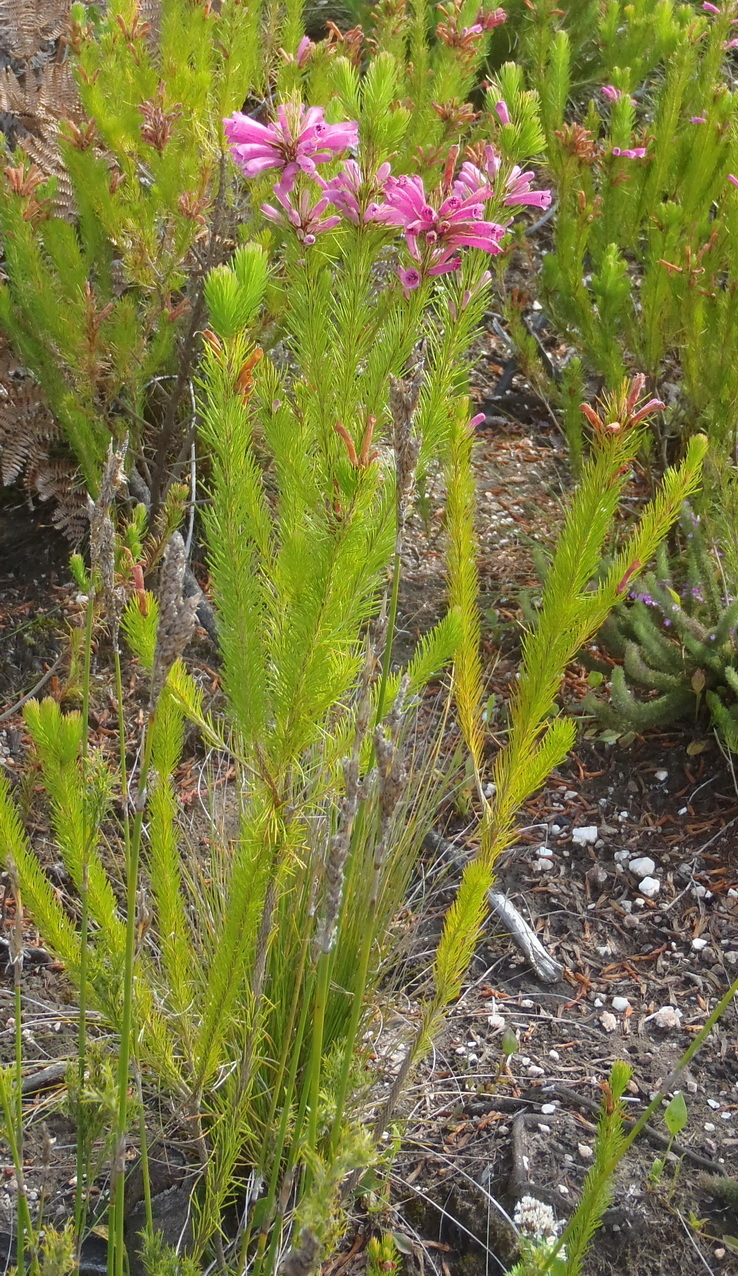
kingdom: Plantae
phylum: Tracheophyta
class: Magnoliopsida
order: Ericales
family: Ericaceae
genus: Erica
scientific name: Erica vestita
